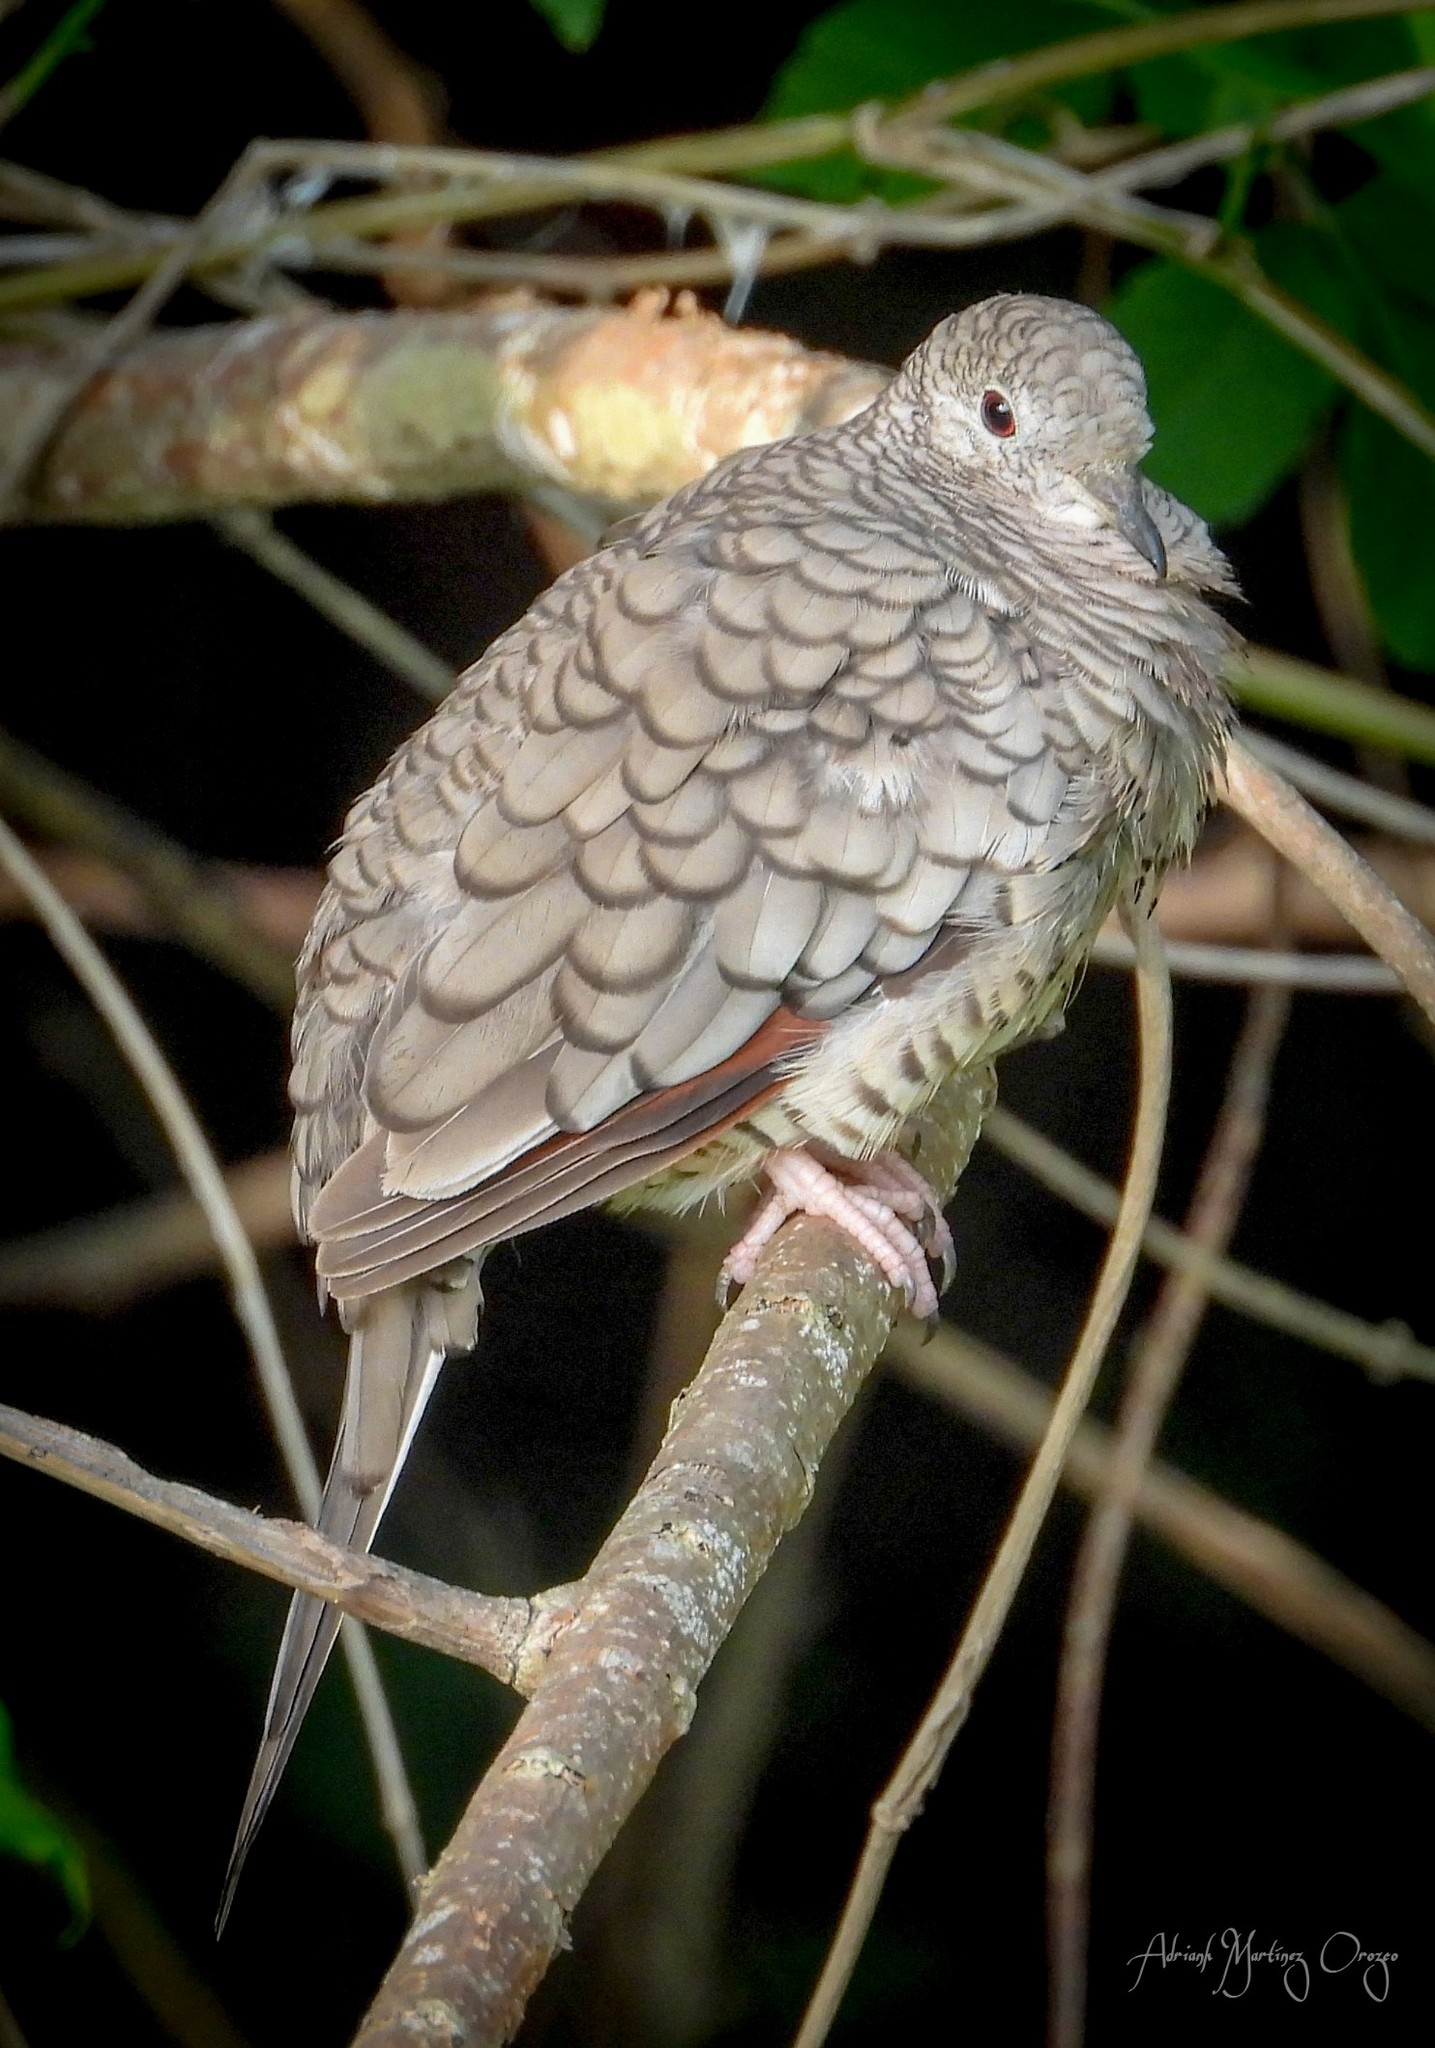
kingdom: Animalia
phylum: Chordata
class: Aves
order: Columbiformes
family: Columbidae
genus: Columbina
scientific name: Columbina inca
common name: Inca dove
